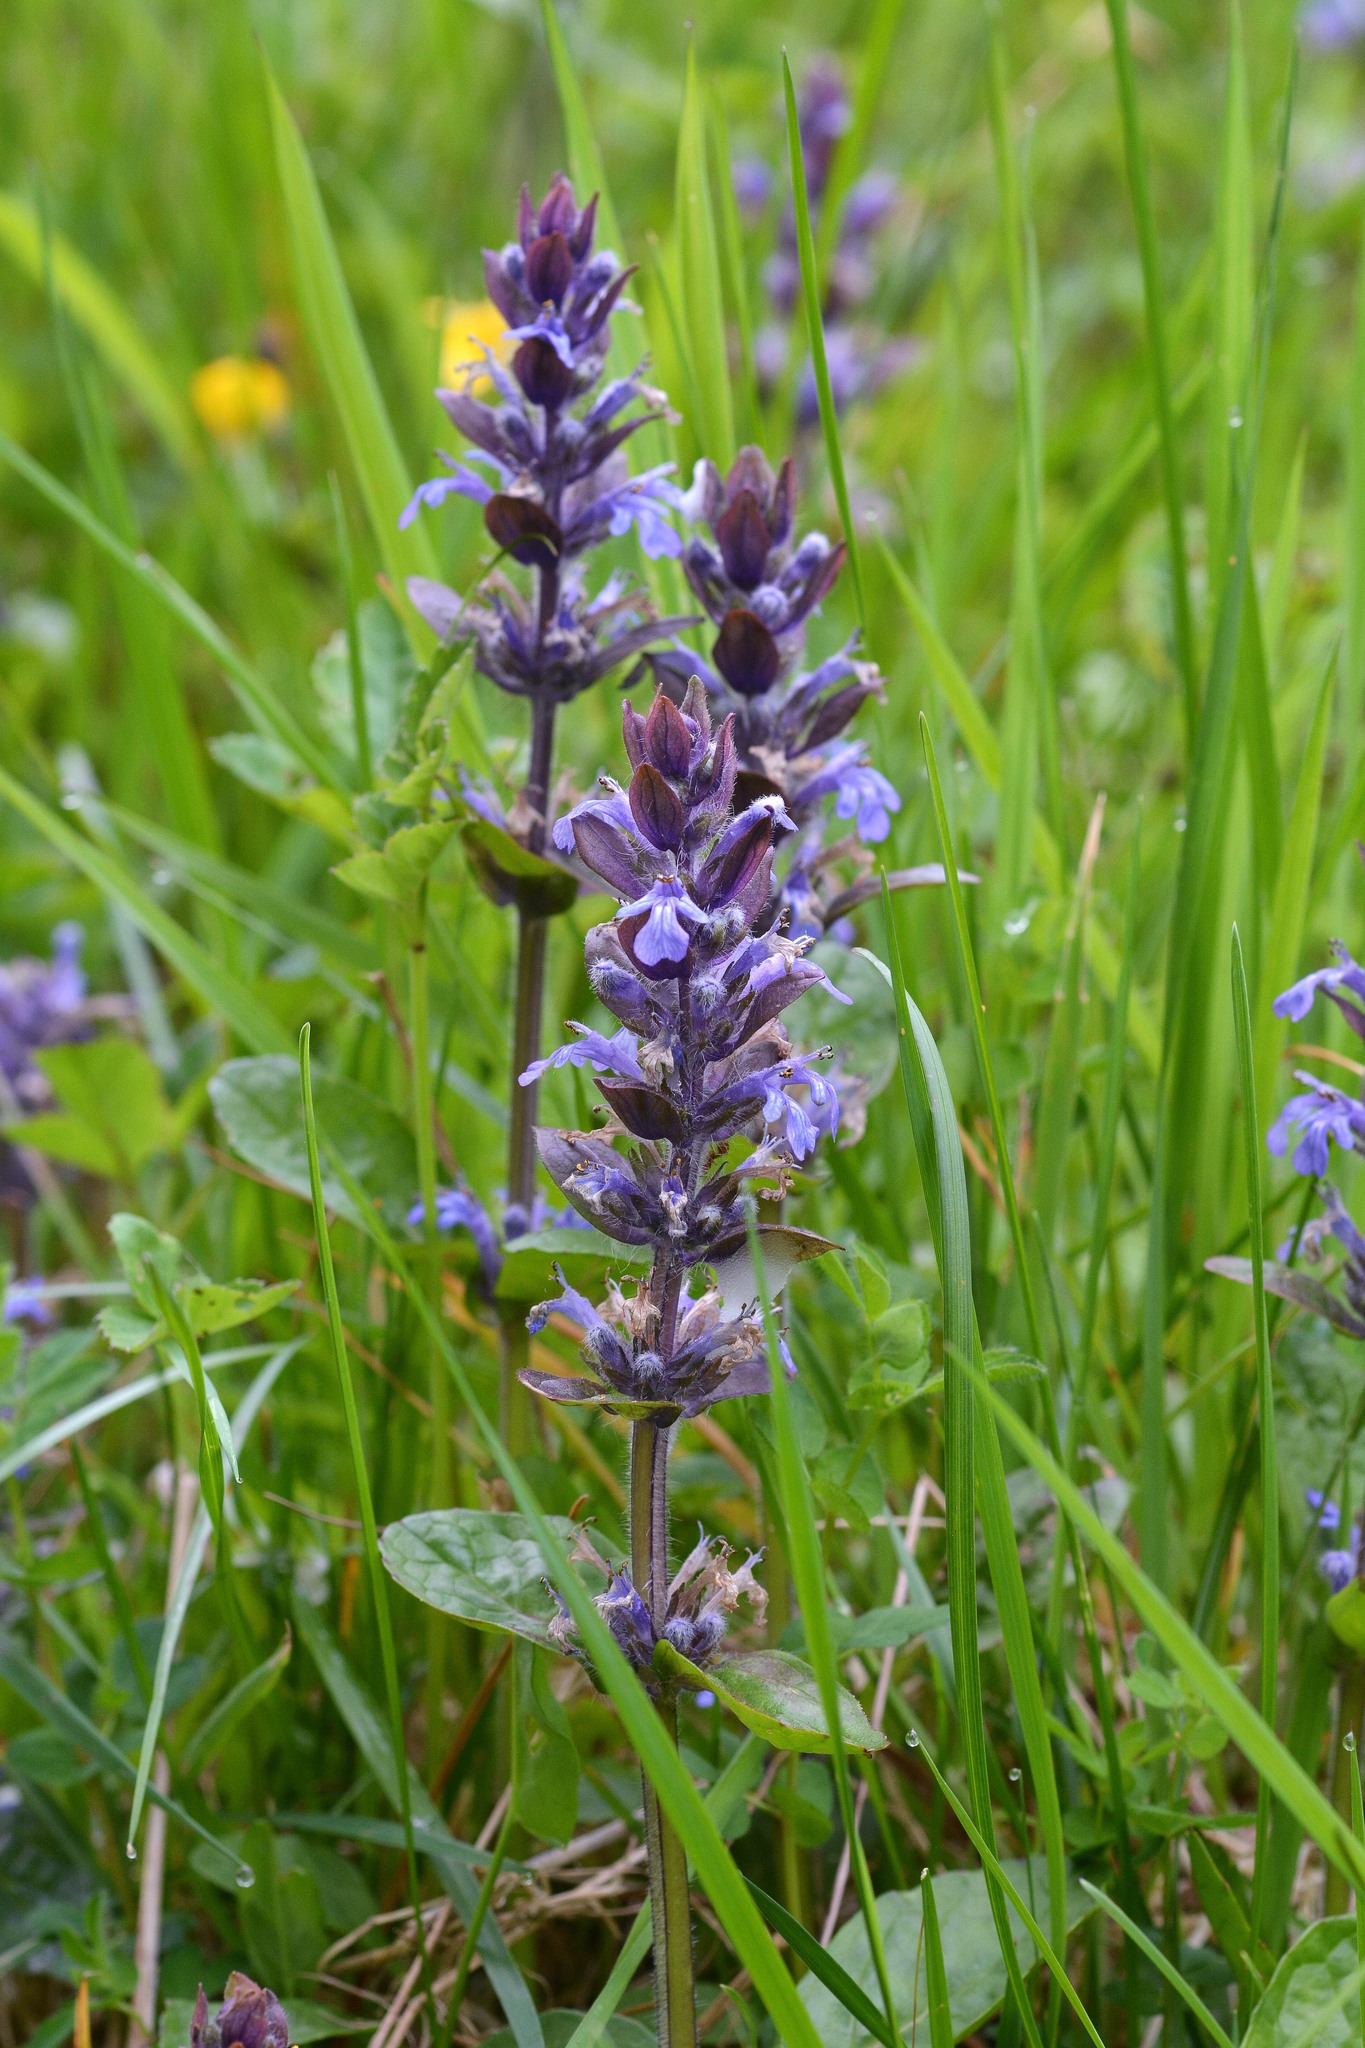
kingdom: Plantae
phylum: Tracheophyta
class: Magnoliopsida
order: Lamiales
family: Lamiaceae
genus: Ajuga
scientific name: Ajuga reptans
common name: Bugle
